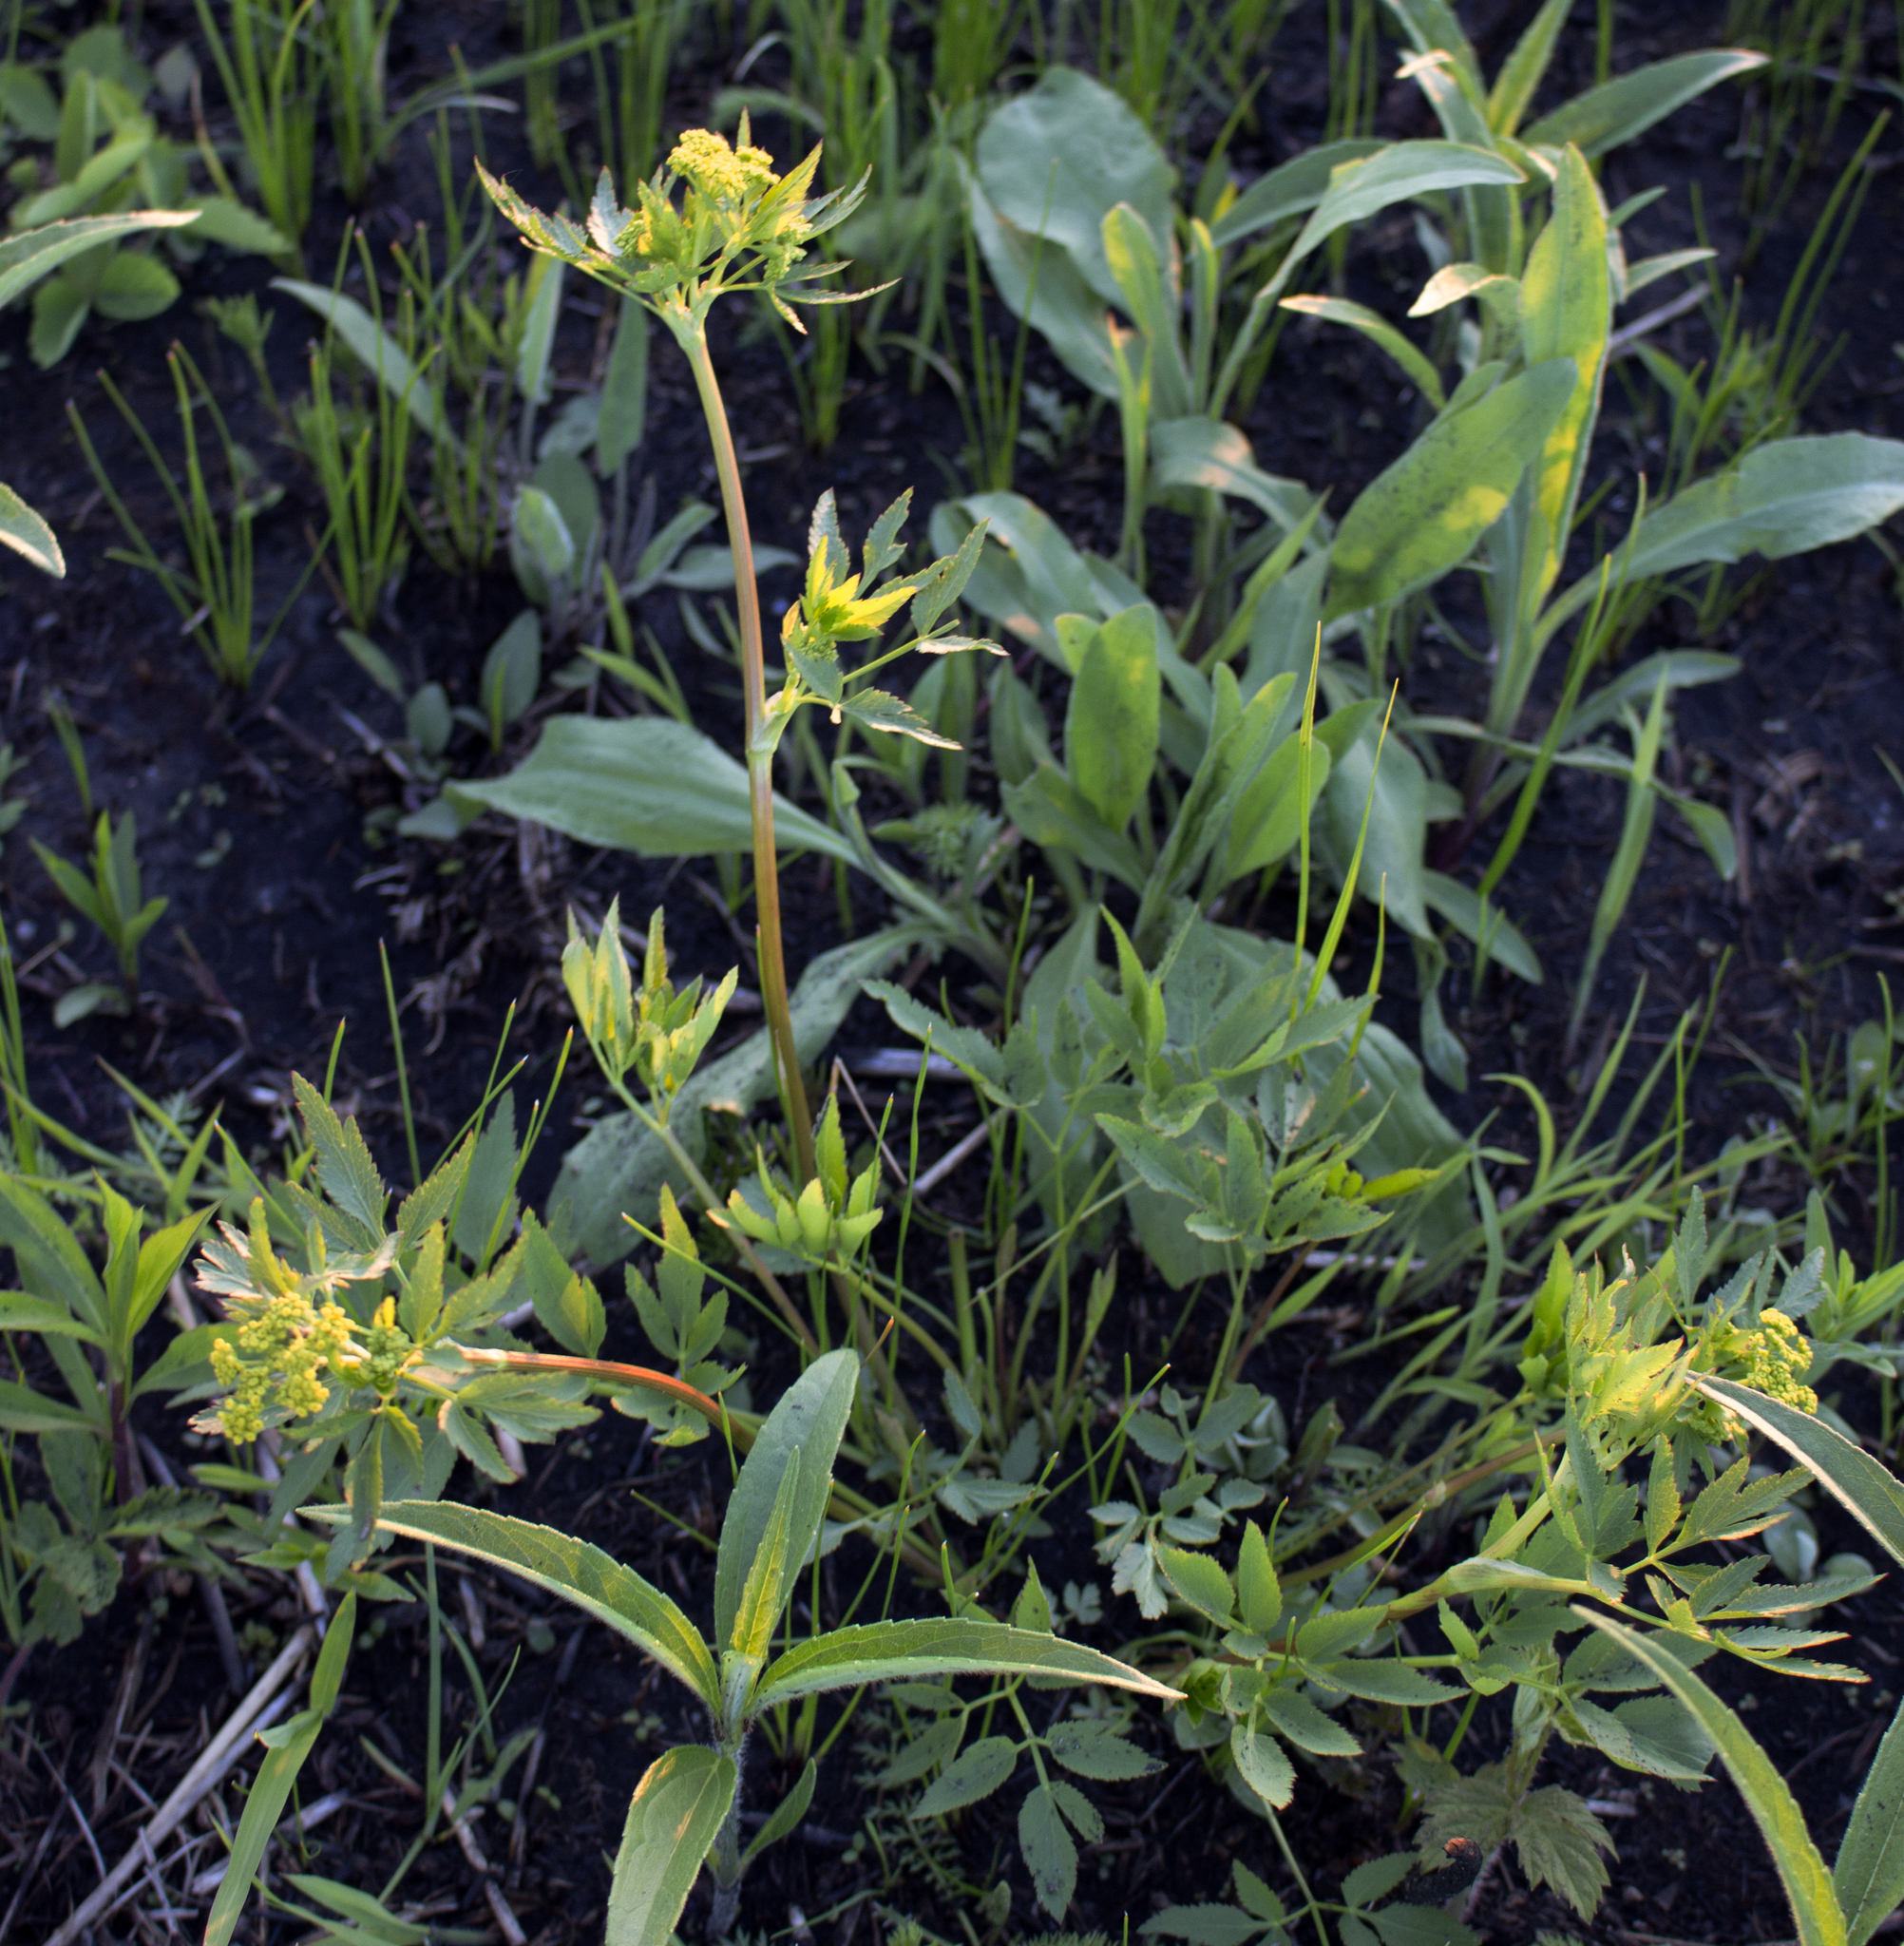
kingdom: Plantae
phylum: Tracheophyta
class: Magnoliopsida
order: Apiales
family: Apiaceae
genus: Zizia
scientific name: Zizia aurea
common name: Golden alexanders
